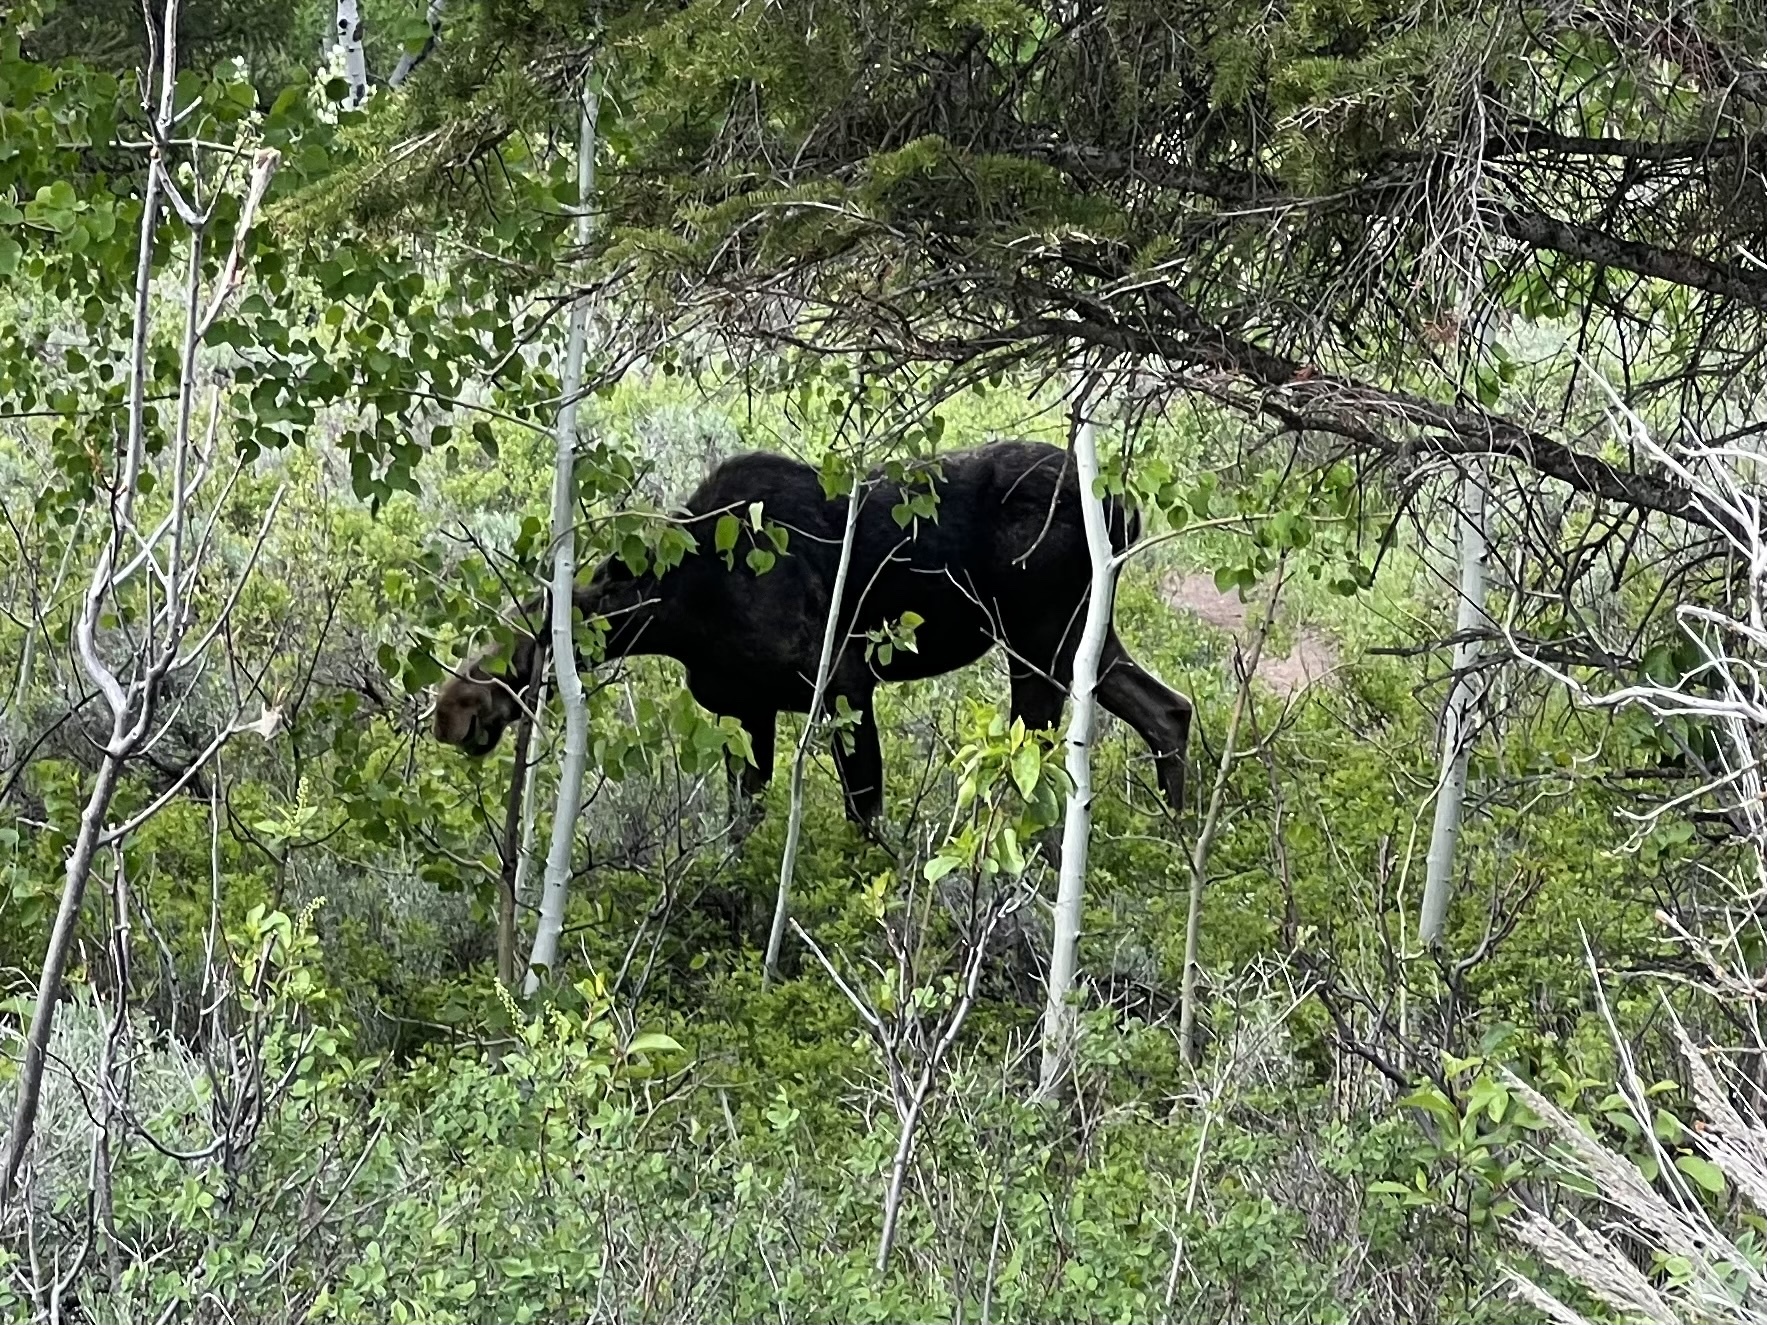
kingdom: Animalia
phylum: Chordata
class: Mammalia
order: Artiodactyla
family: Cervidae
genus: Alces
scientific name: Alces alces
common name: Moose
